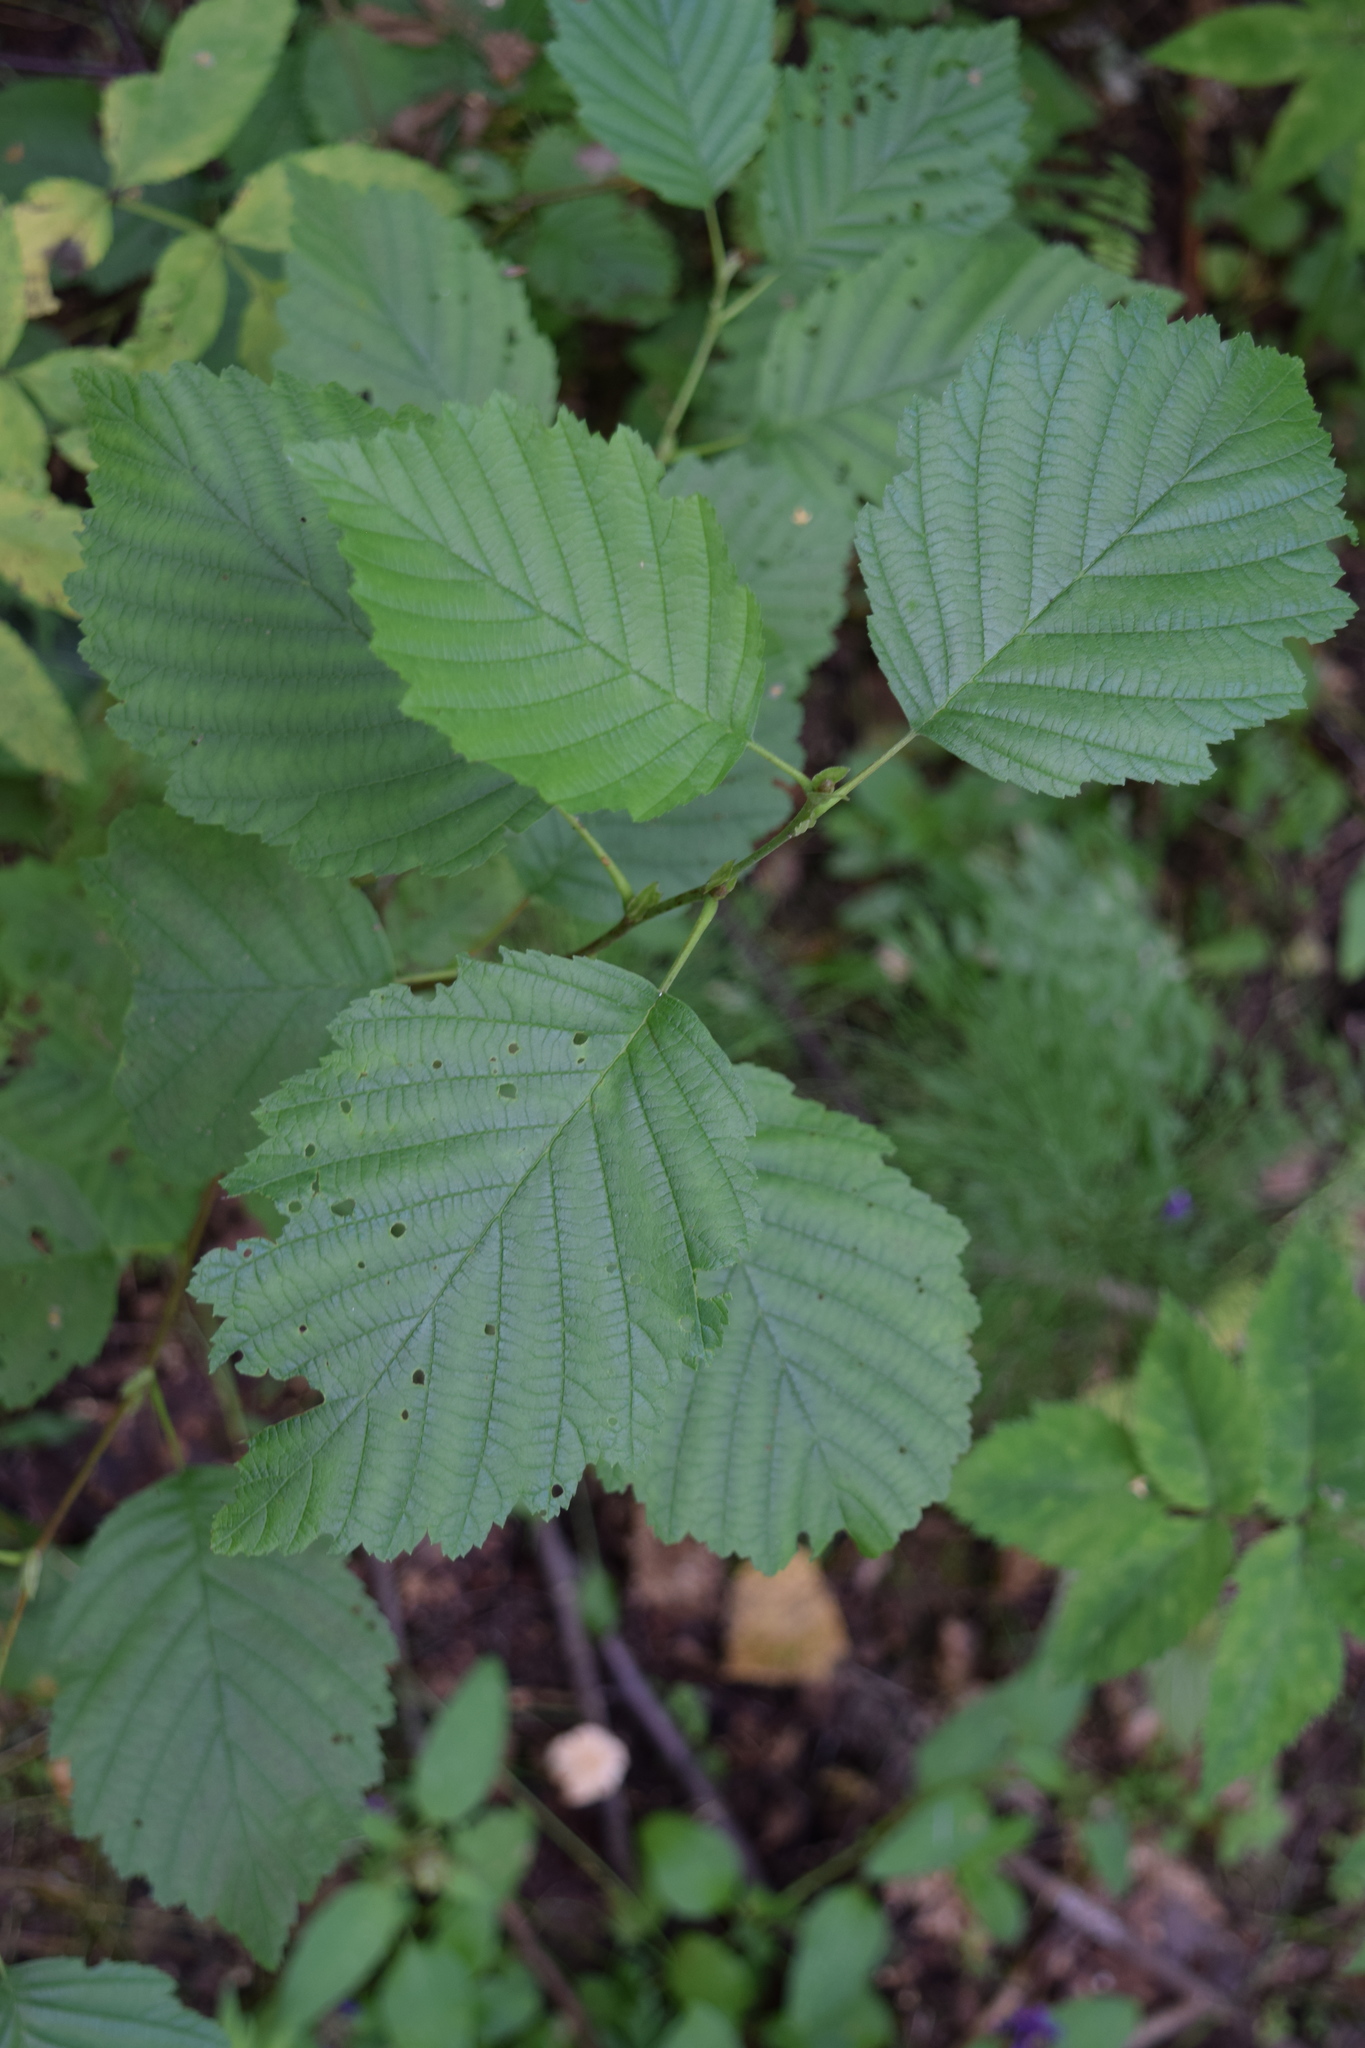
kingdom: Plantae
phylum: Tracheophyta
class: Magnoliopsida
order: Fagales
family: Betulaceae
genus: Alnus
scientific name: Alnus incana
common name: Grey alder
